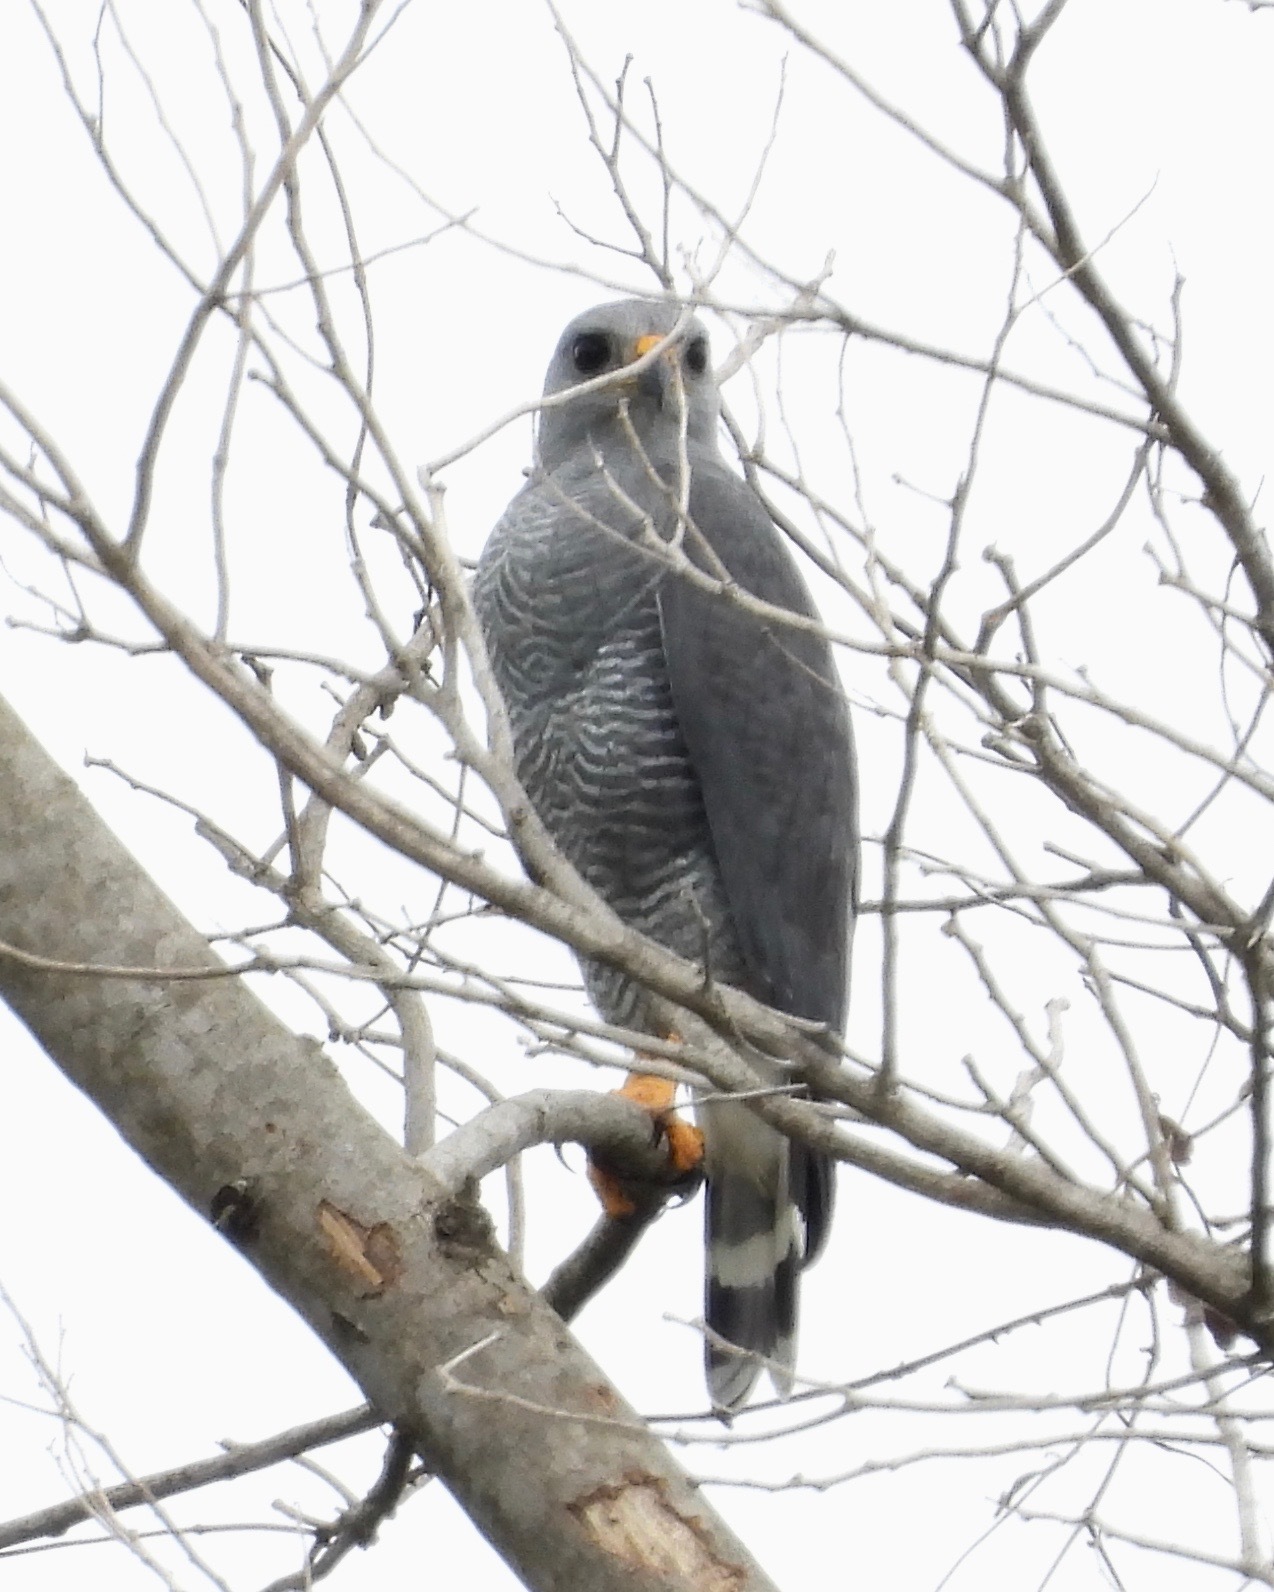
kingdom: Animalia
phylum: Chordata
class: Aves
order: Accipitriformes
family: Accipitridae
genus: Buteo
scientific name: Buteo nitidus
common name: Grey-lined hawk
